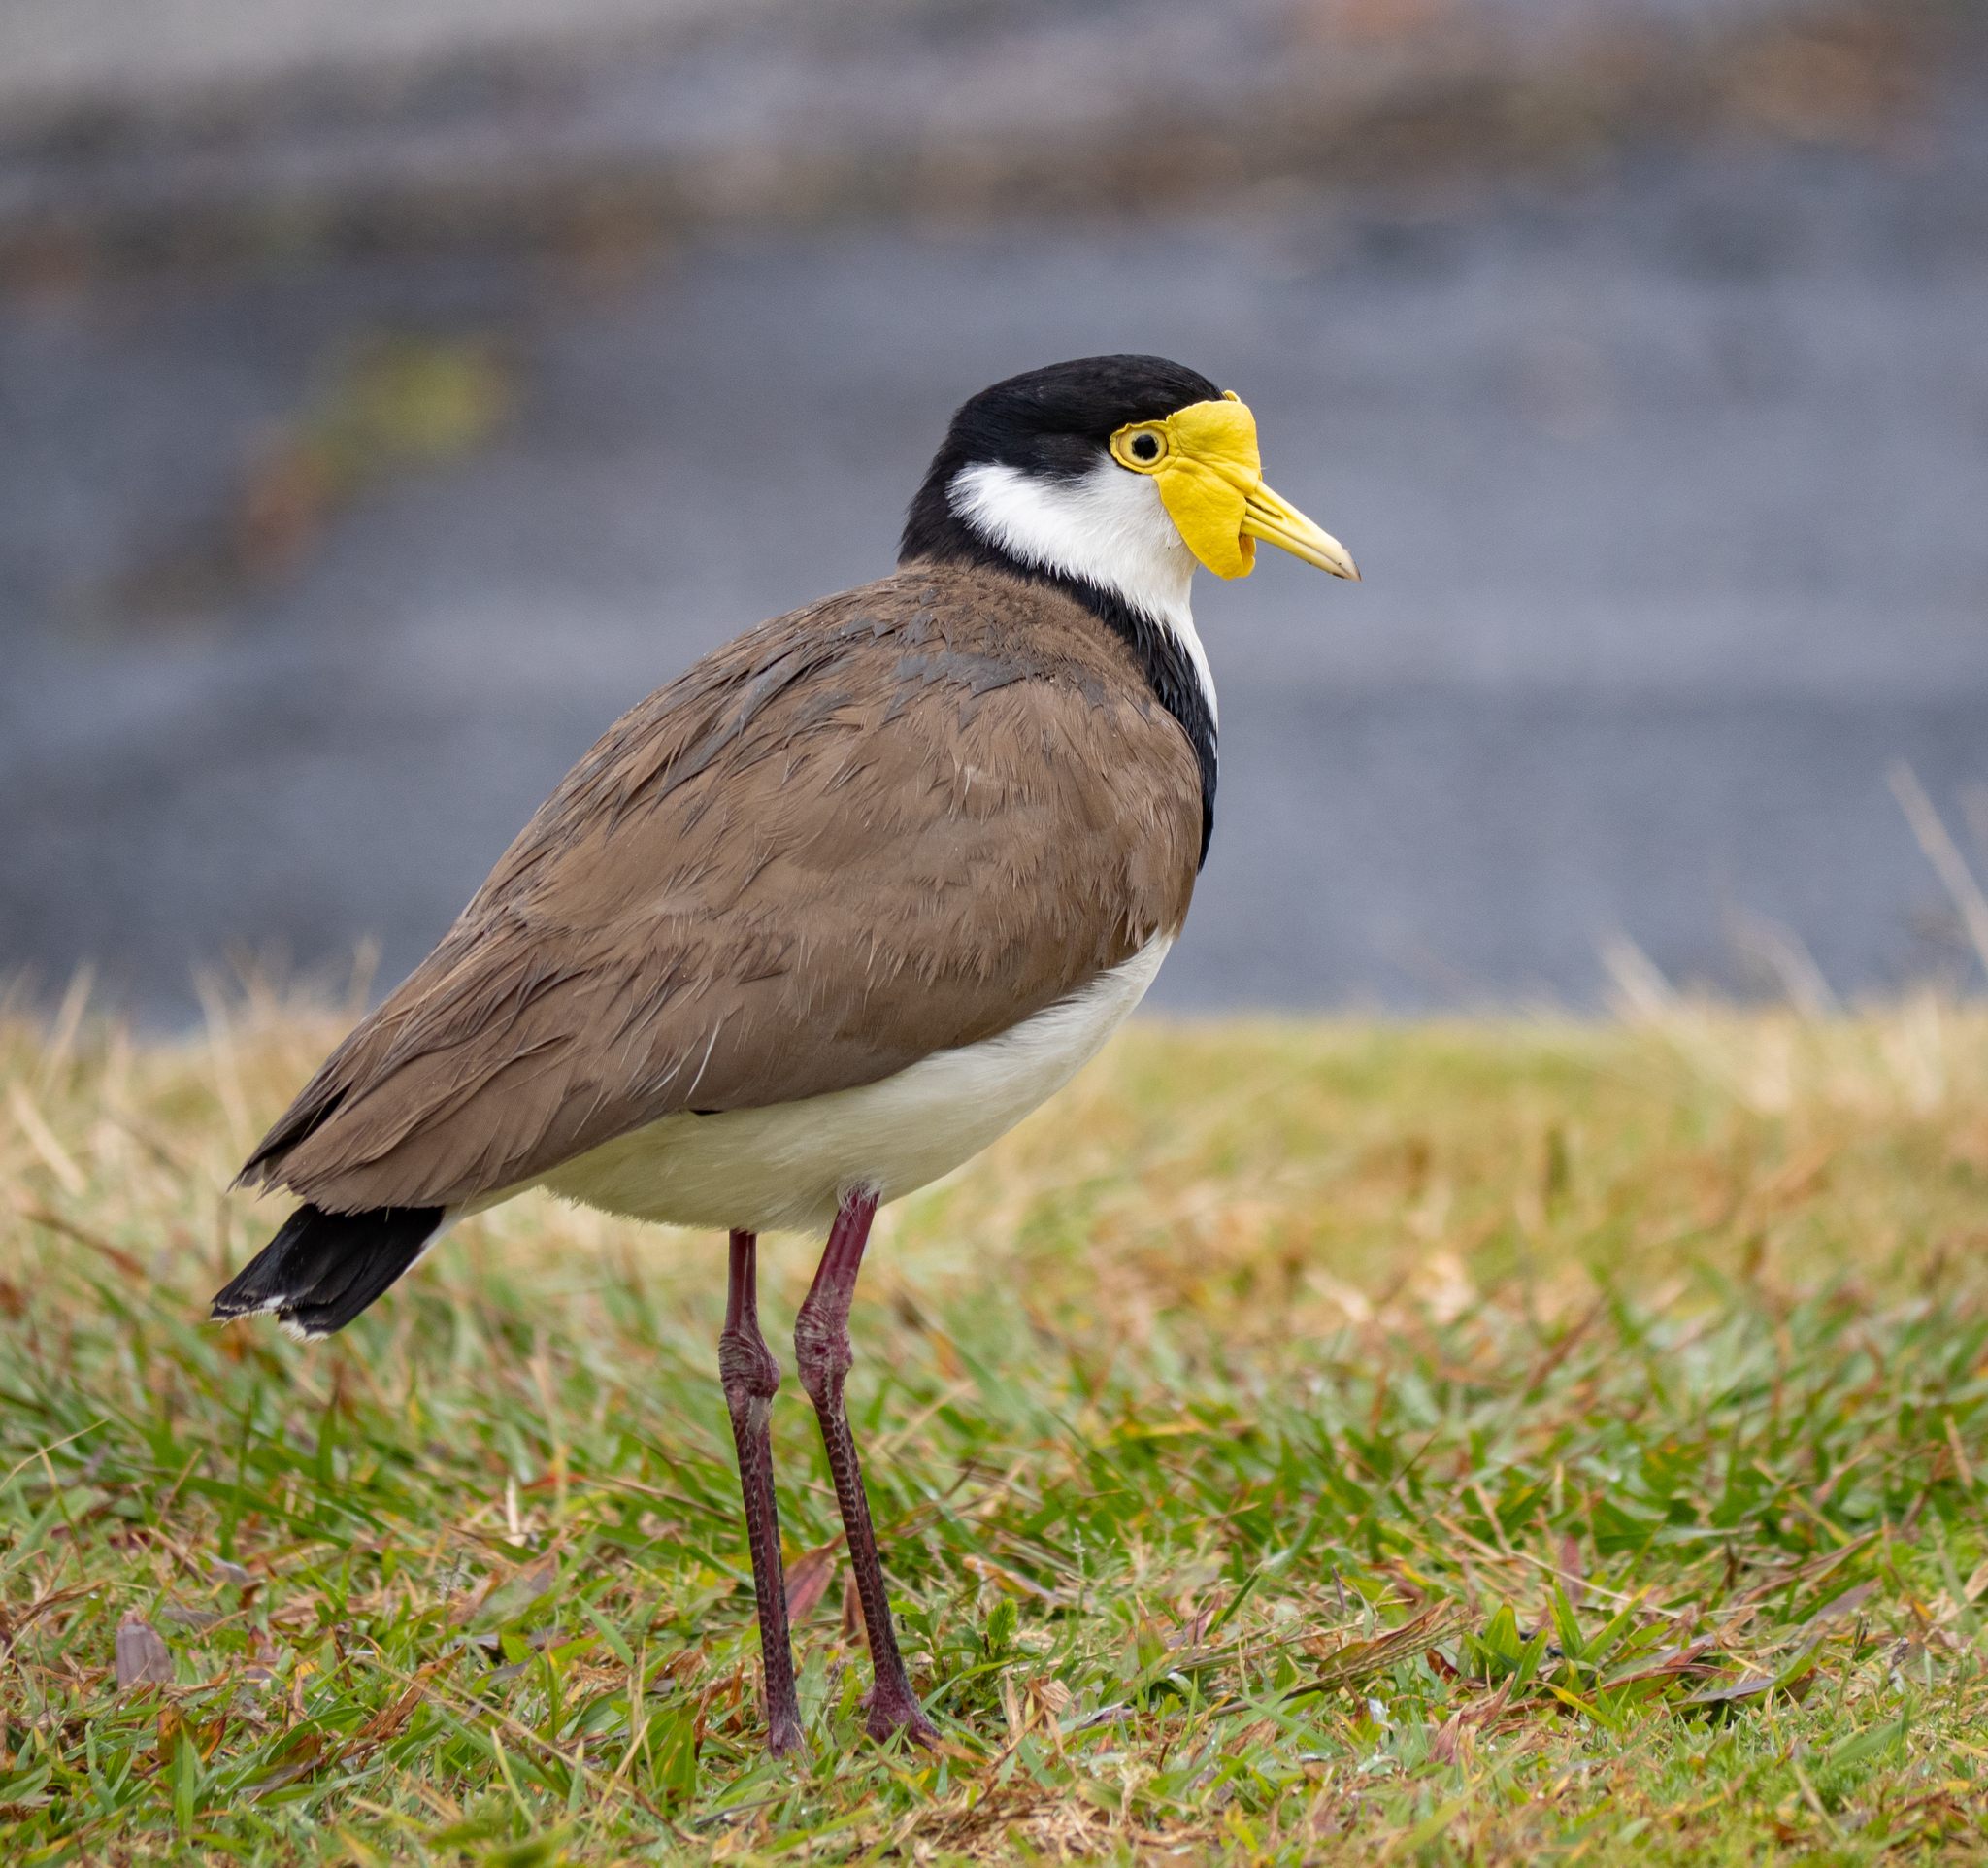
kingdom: Animalia
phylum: Chordata
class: Aves
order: Charadriiformes
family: Charadriidae
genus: Vanellus
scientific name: Vanellus miles
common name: Masked lapwing
